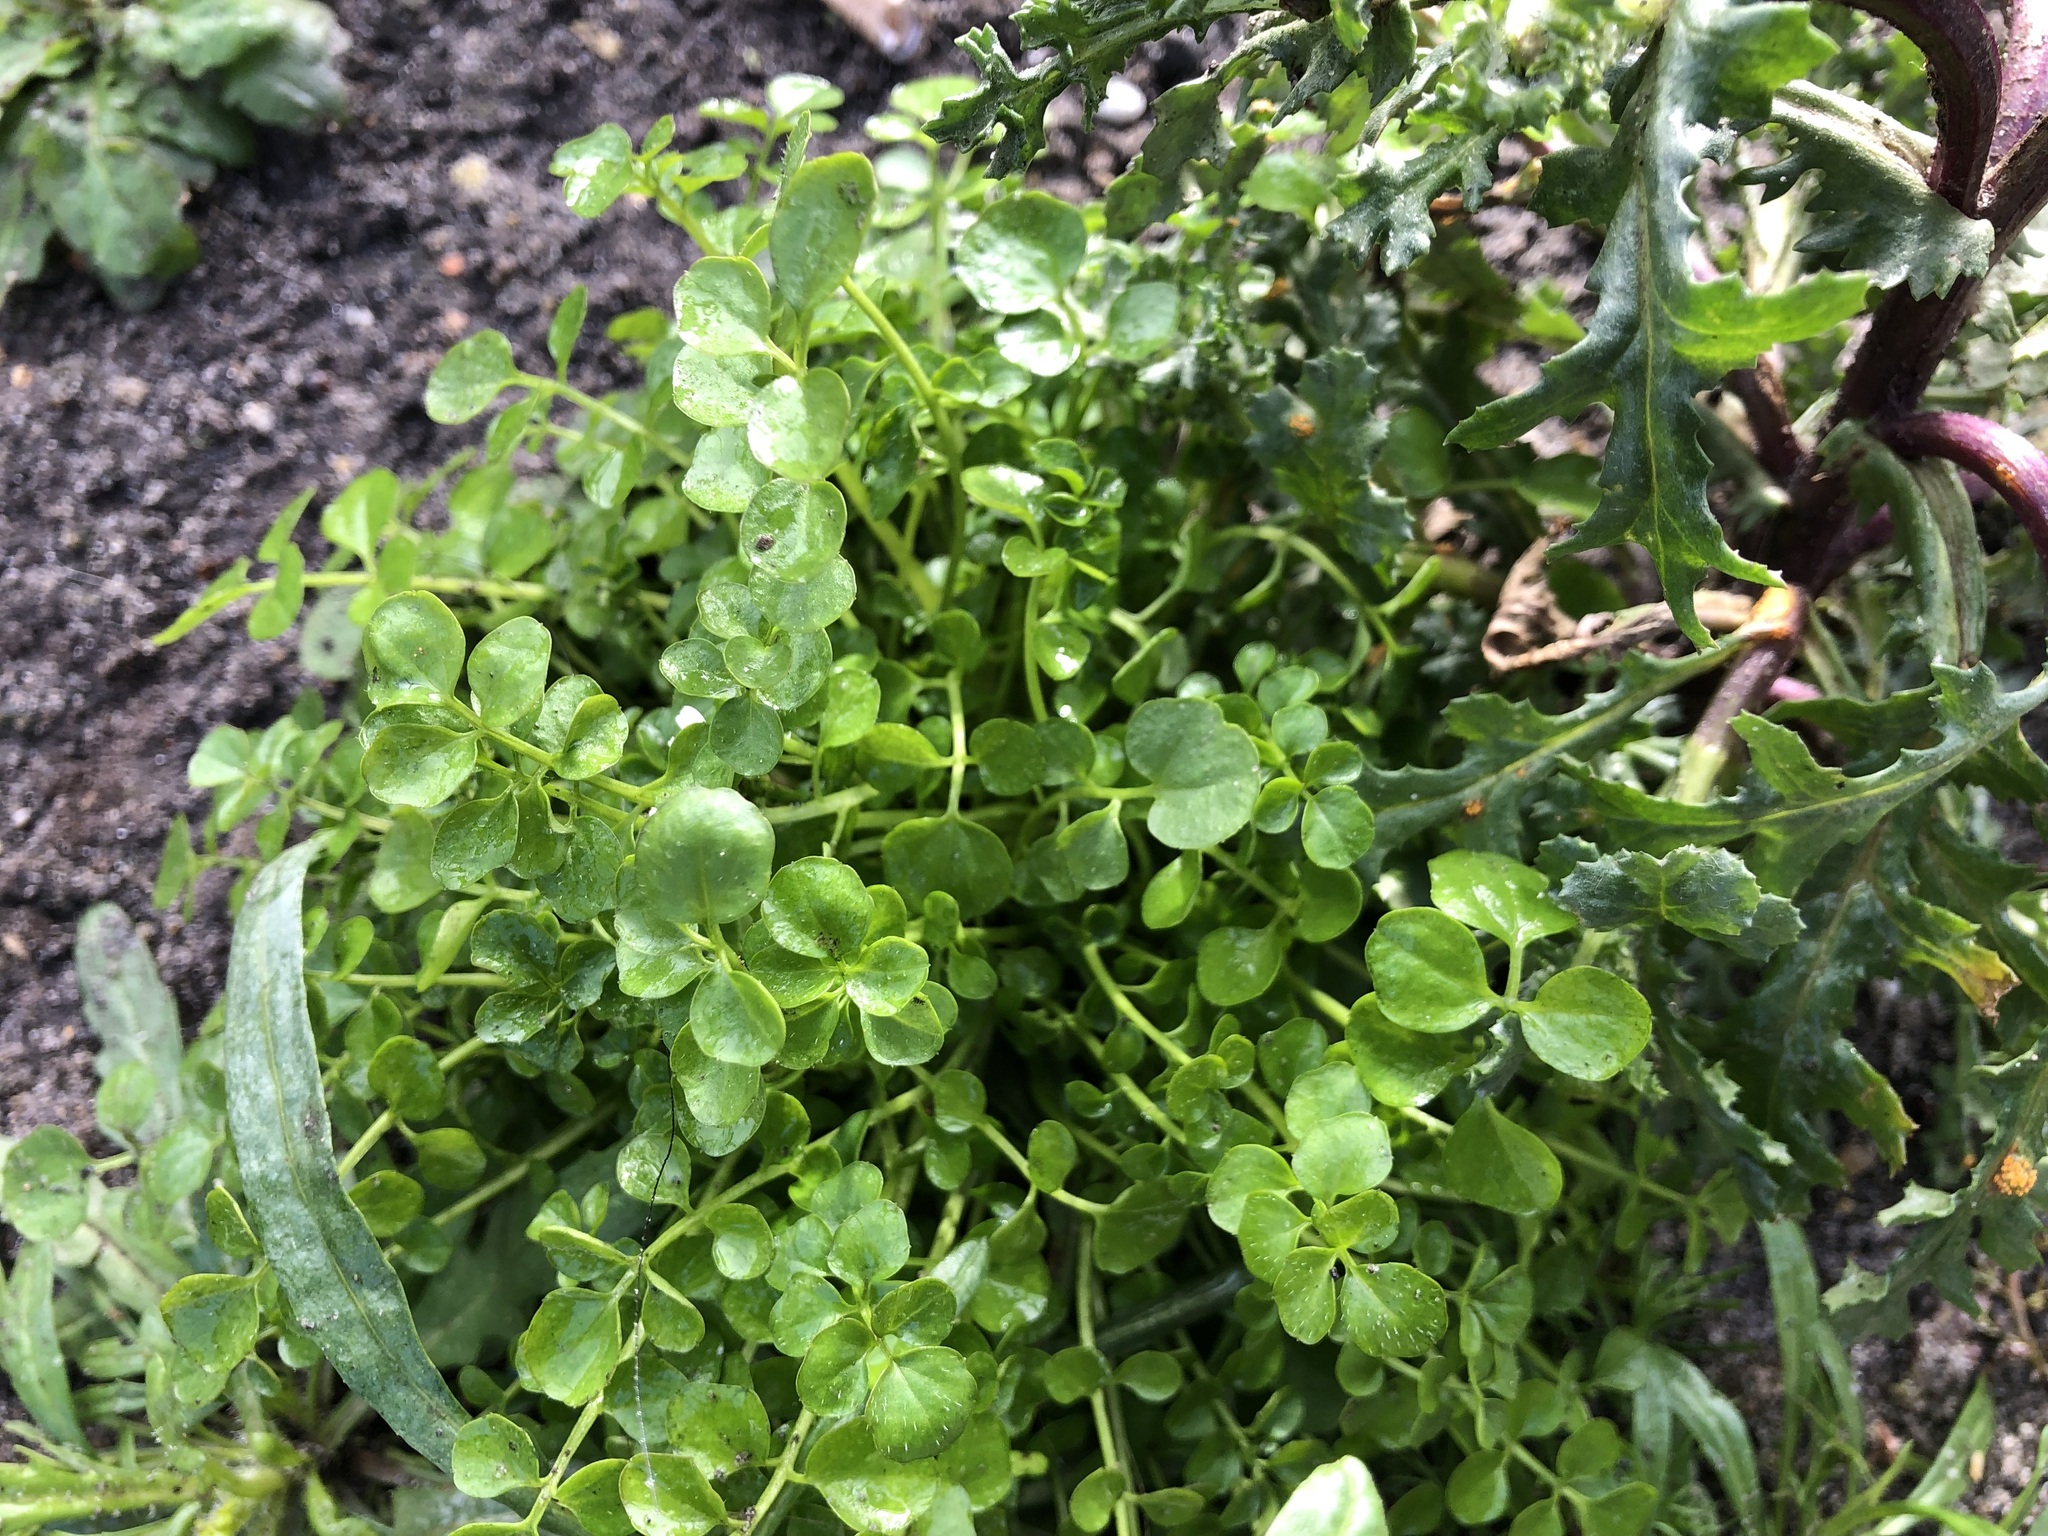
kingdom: Plantae
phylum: Tracheophyta
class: Magnoliopsida
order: Brassicales
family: Brassicaceae
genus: Cardamine
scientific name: Cardamine hirsuta
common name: Hairy bittercress
